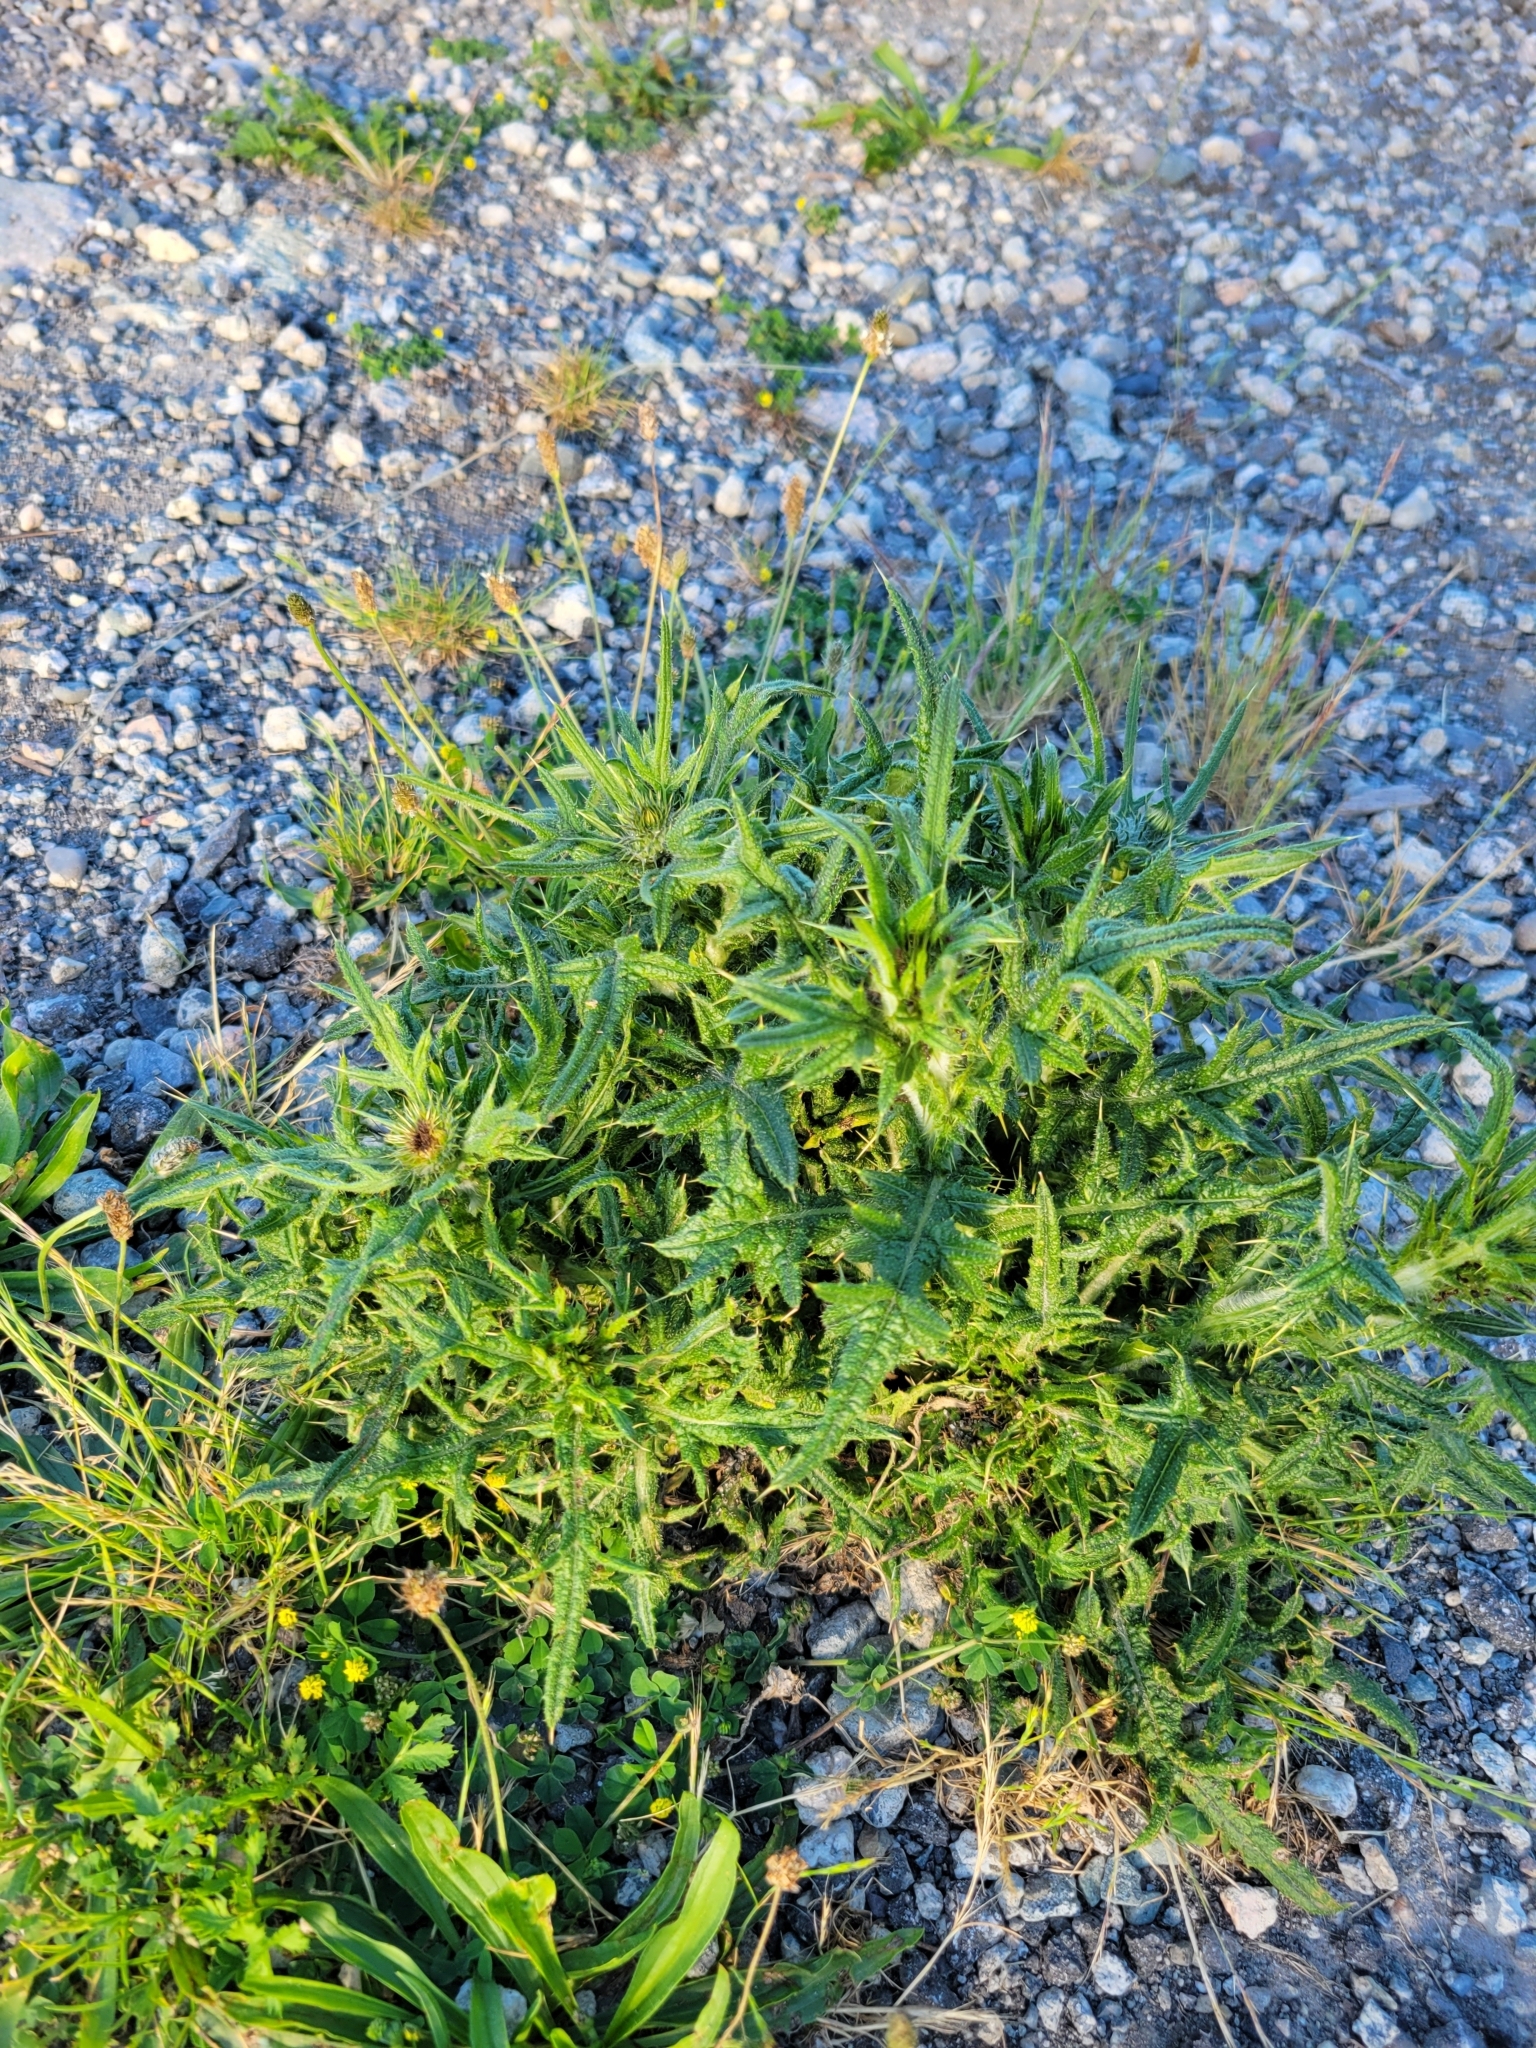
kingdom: Plantae
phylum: Tracheophyta
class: Magnoliopsida
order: Asterales
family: Asteraceae
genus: Cirsium
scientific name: Cirsium vulgare
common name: Bull thistle
